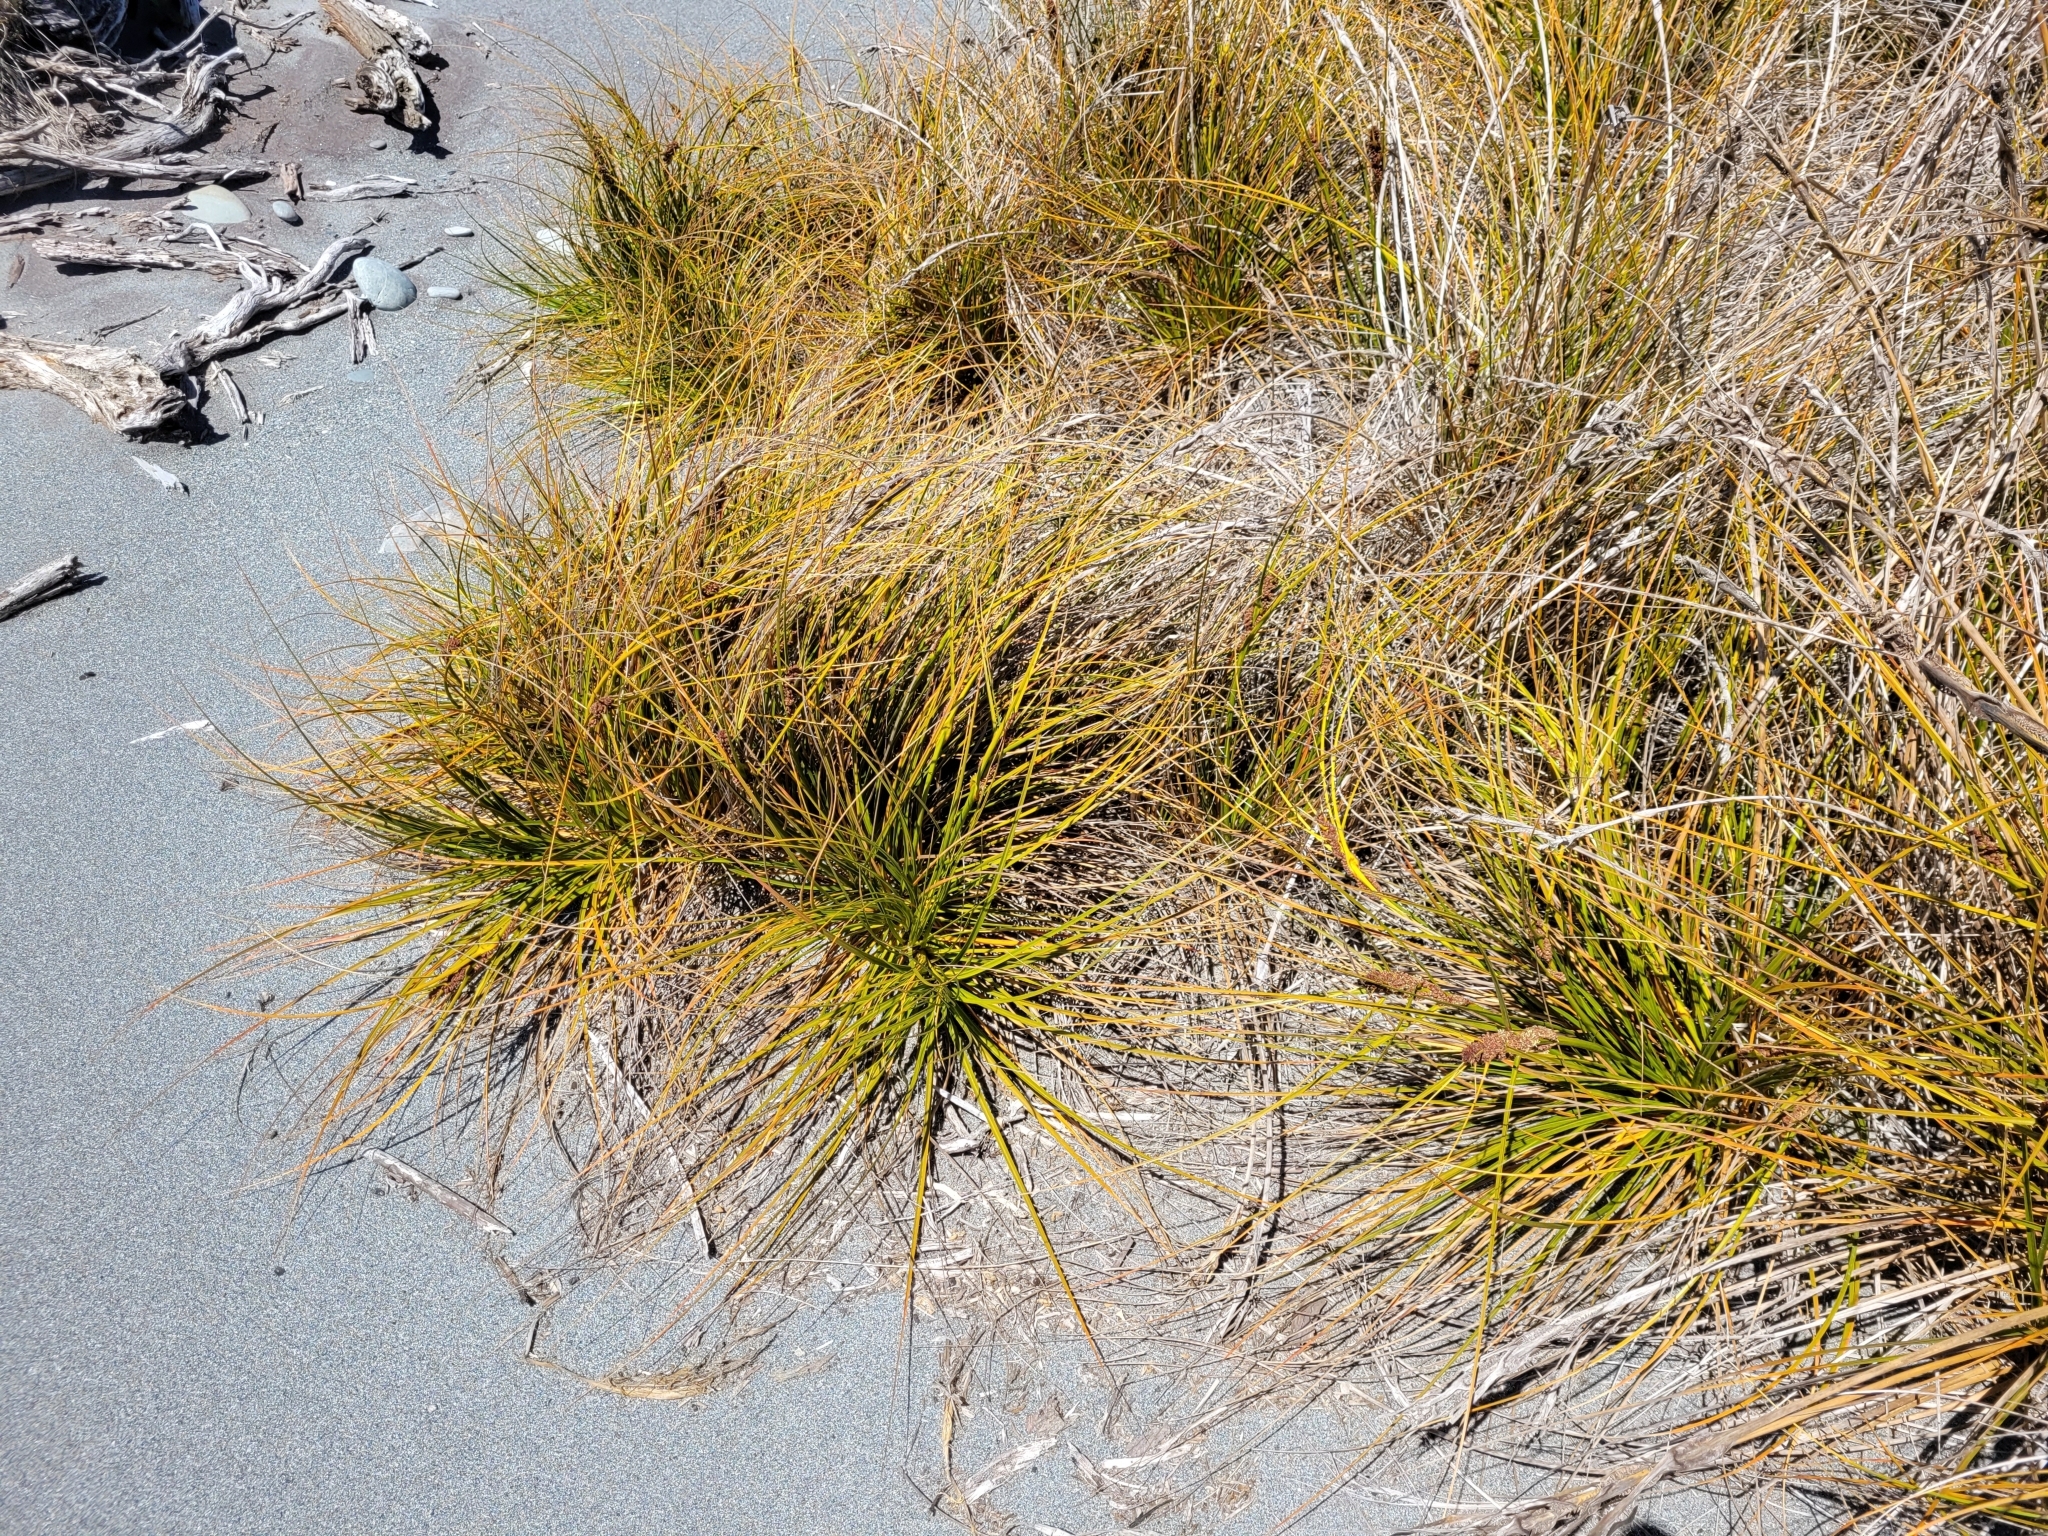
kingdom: Plantae
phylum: Tracheophyta
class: Liliopsida
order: Poales
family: Cyperaceae
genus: Ficinia
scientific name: Ficinia spiralis
